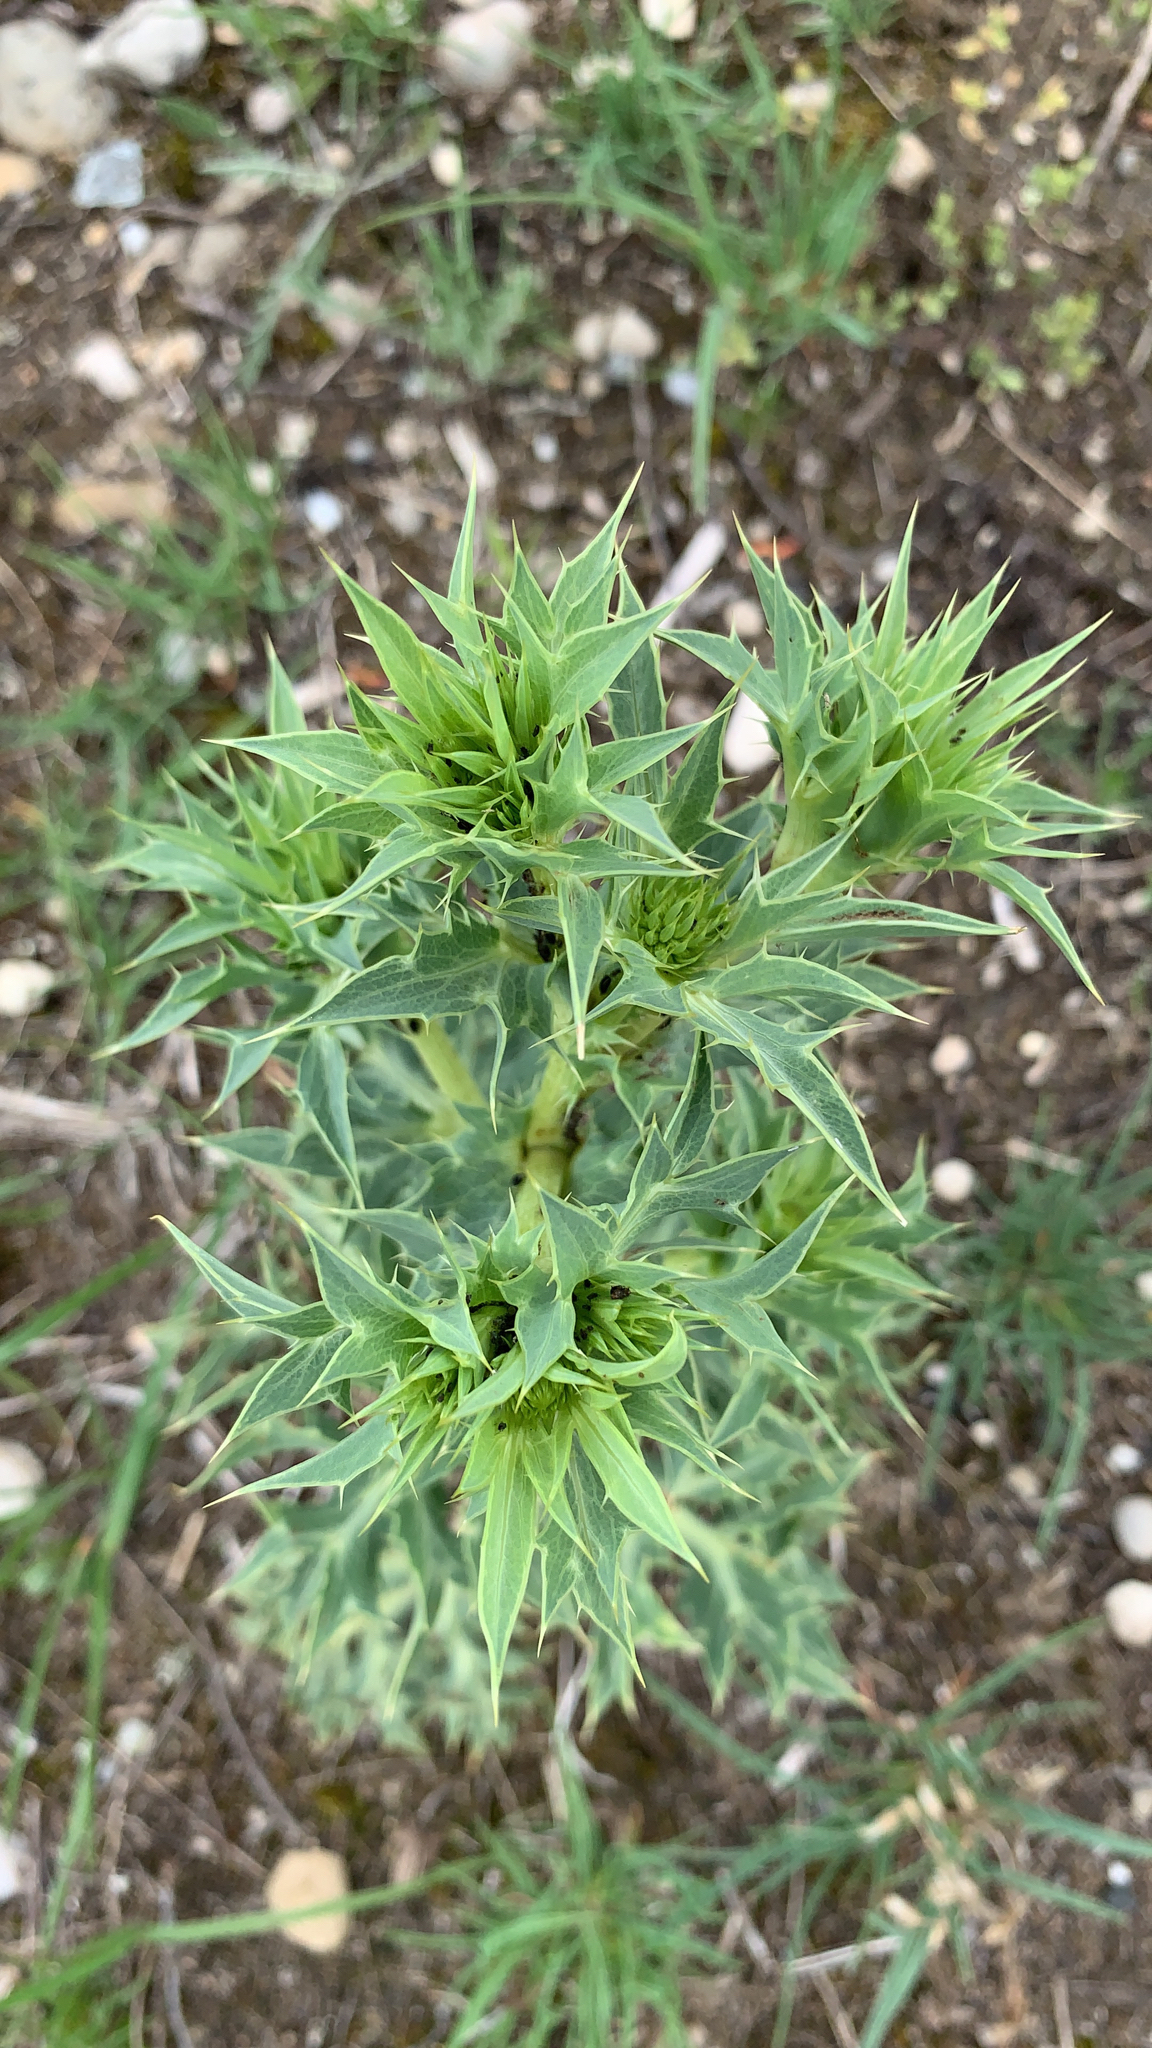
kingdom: Plantae
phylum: Tracheophyta
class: Magnoliopsida
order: Apiales
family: Apiaceae
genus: Eryngium
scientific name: Eryngium campestre
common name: Field eryngo
